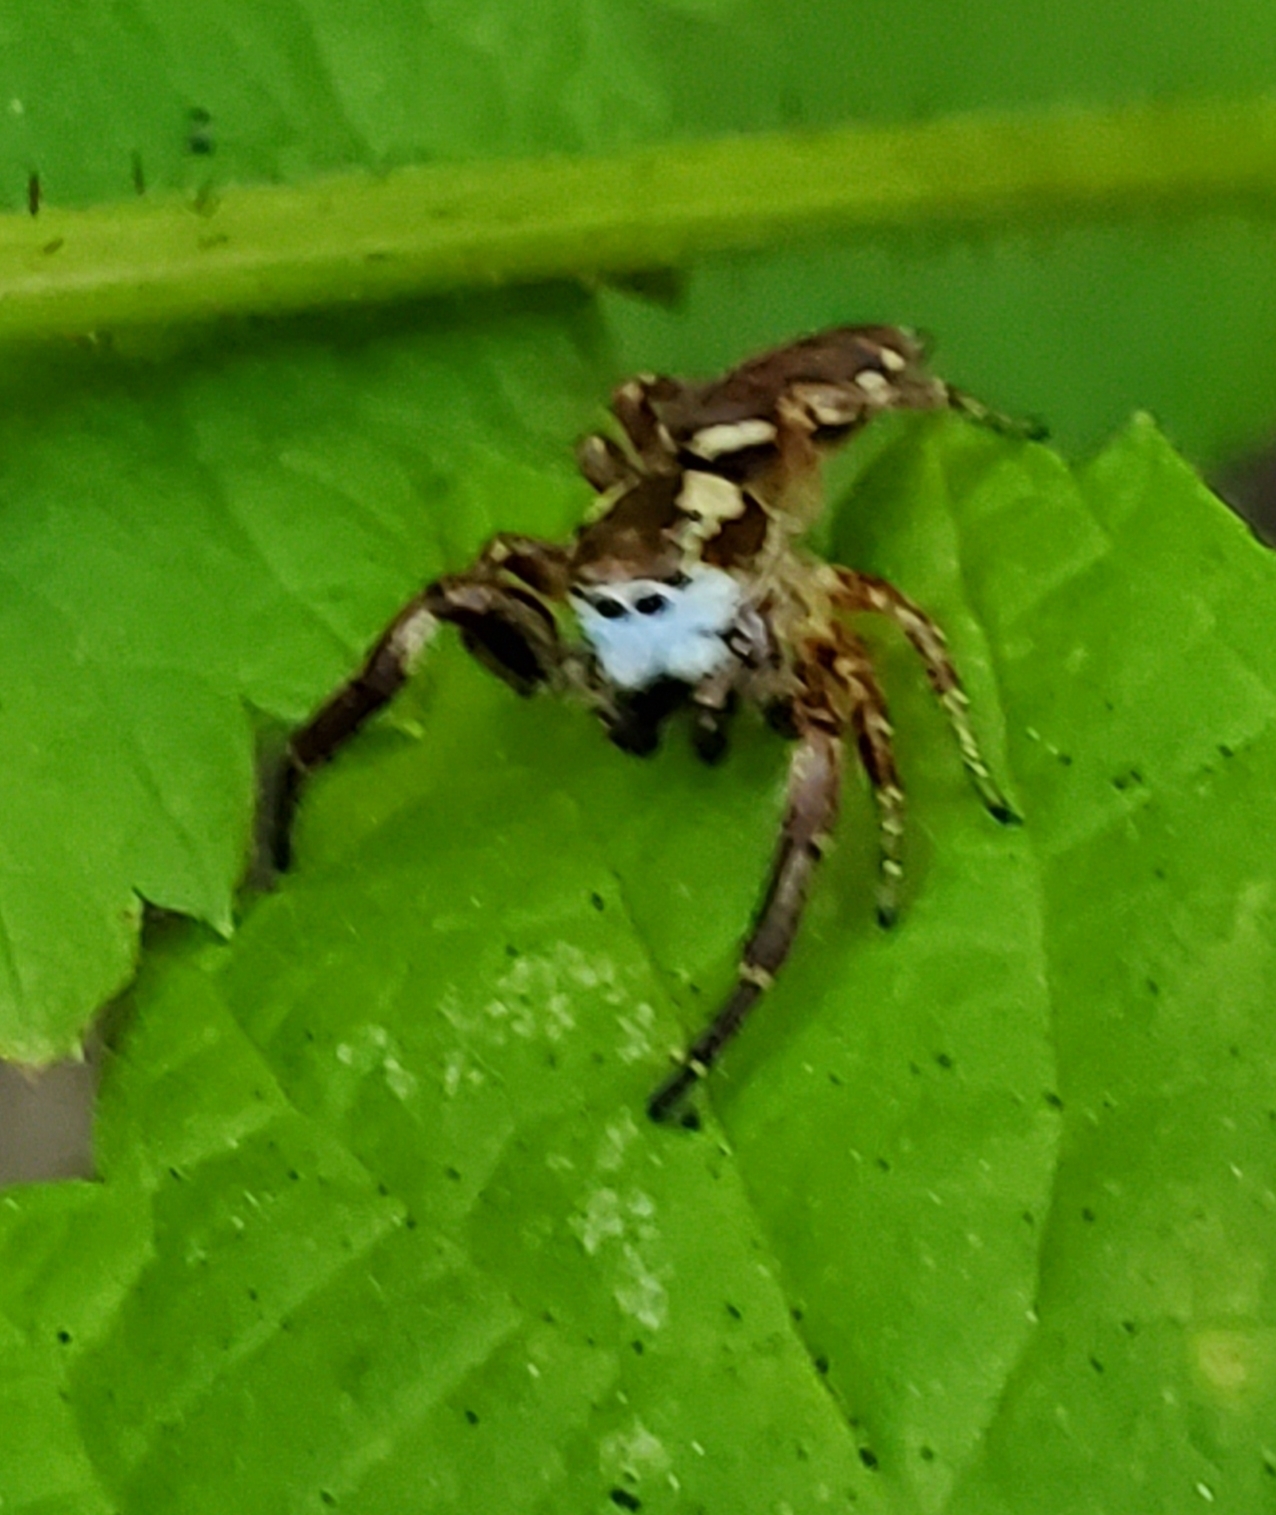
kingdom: Animalia
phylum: Arthropoda
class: Arachnida
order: Araneae
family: Salticidae
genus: Phanias
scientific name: Phanias albeolus
